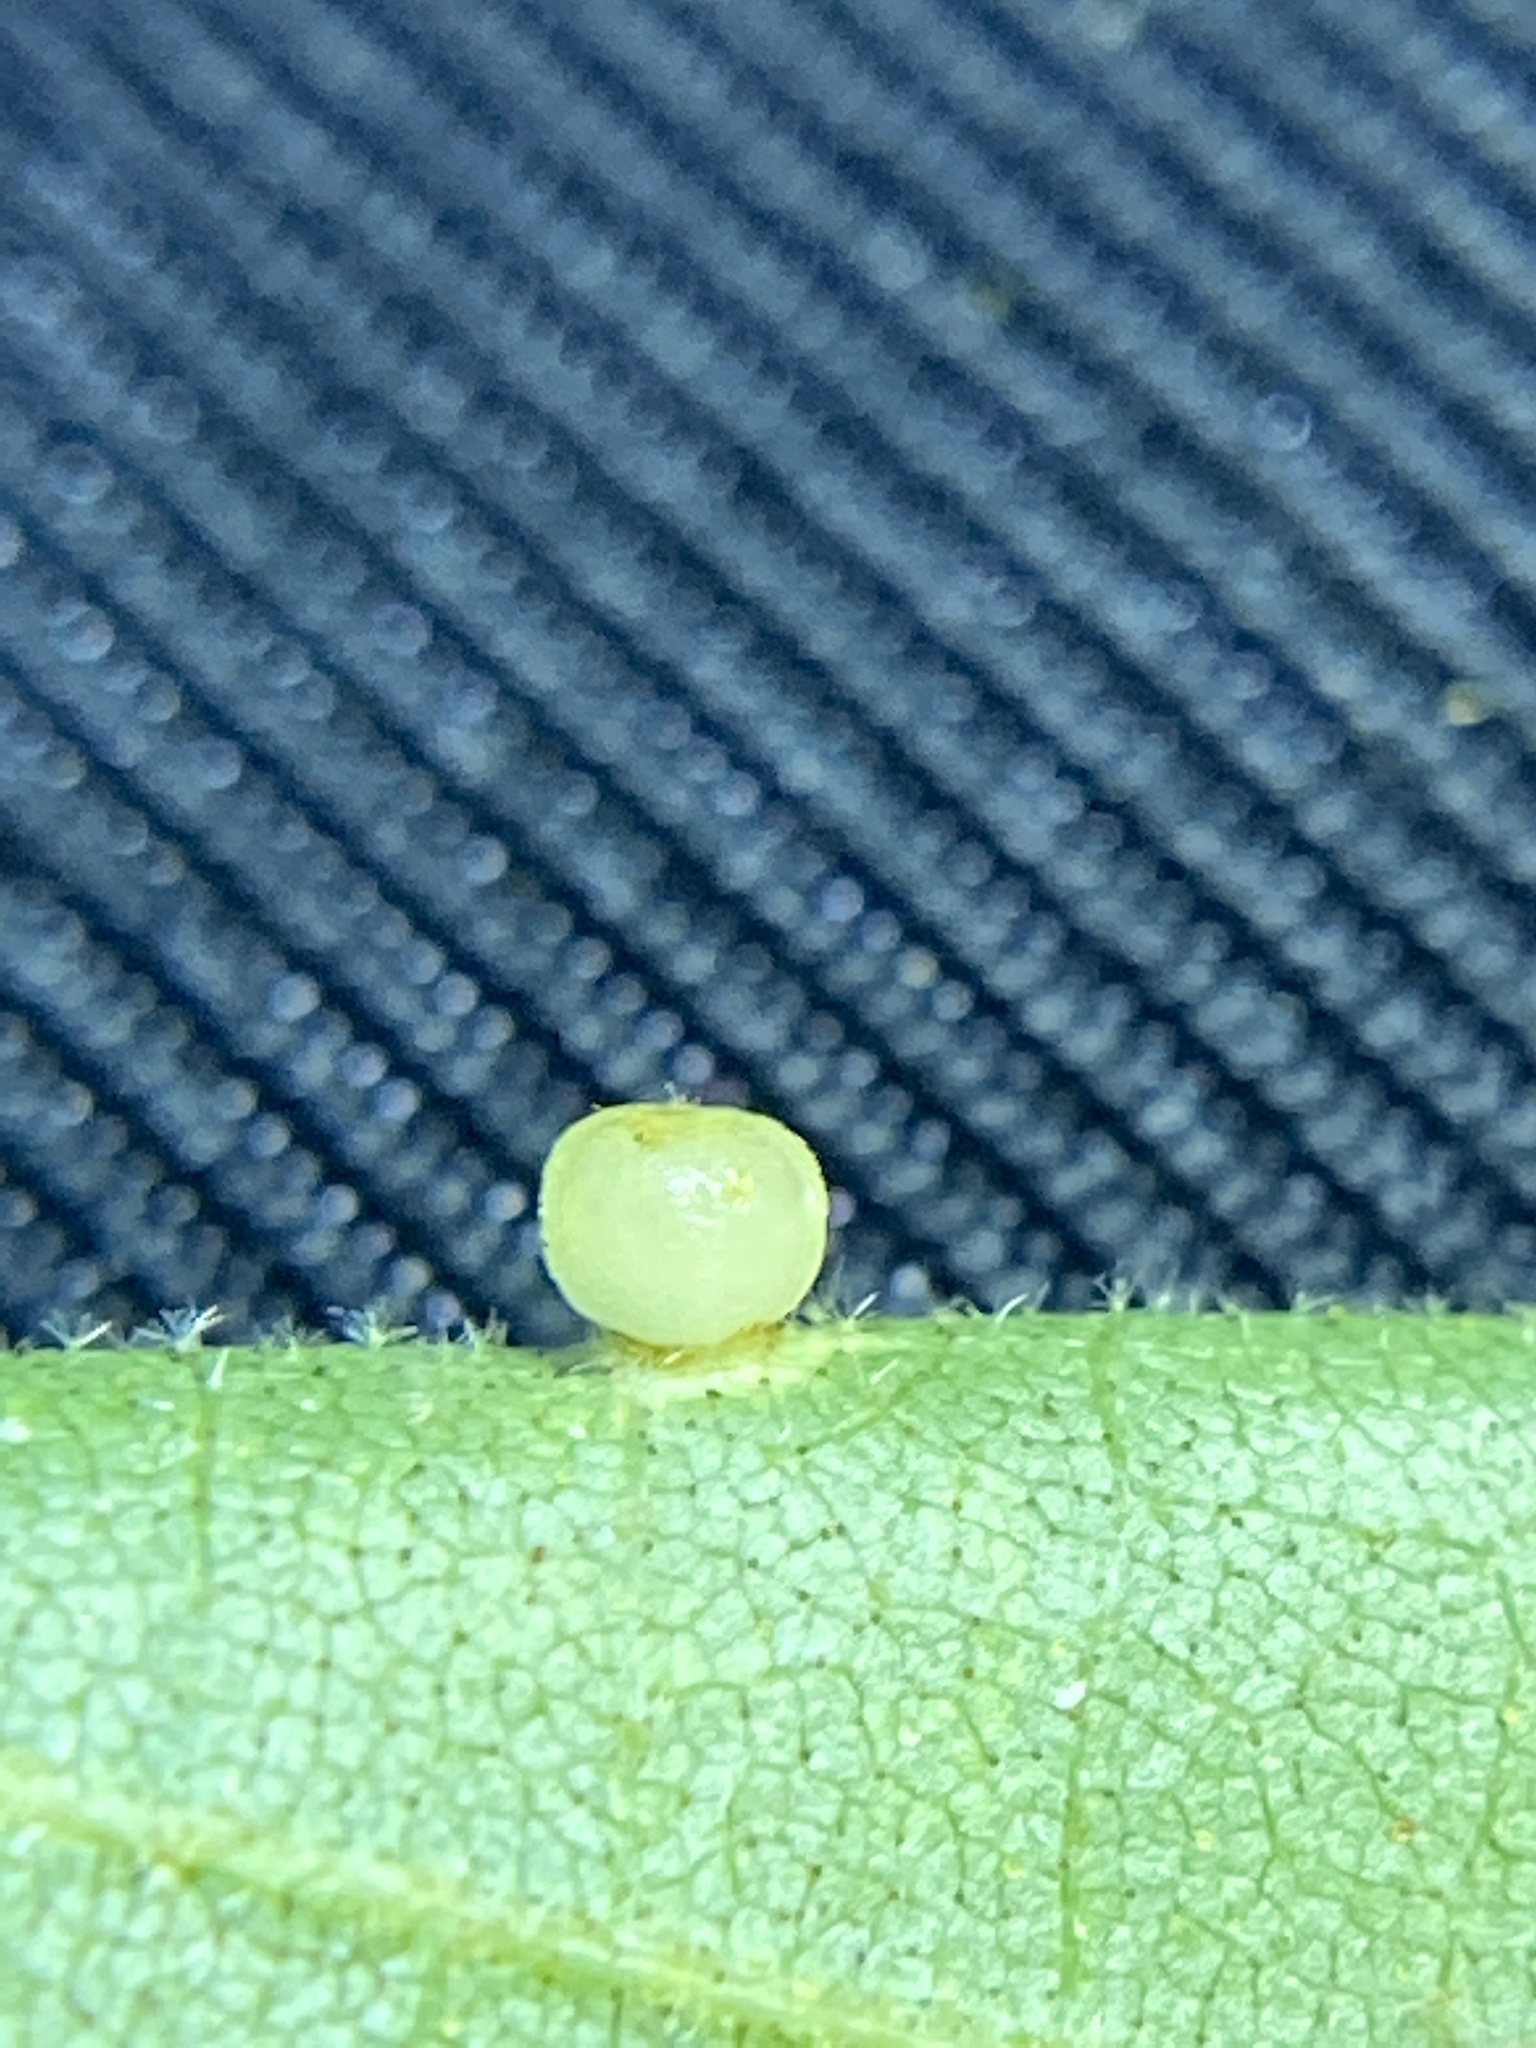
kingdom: Animalia
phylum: Arthropoda
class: Insecta
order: Diptera
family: Cecidomyiidae
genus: Caryomyia
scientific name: Caryomyia lenta
